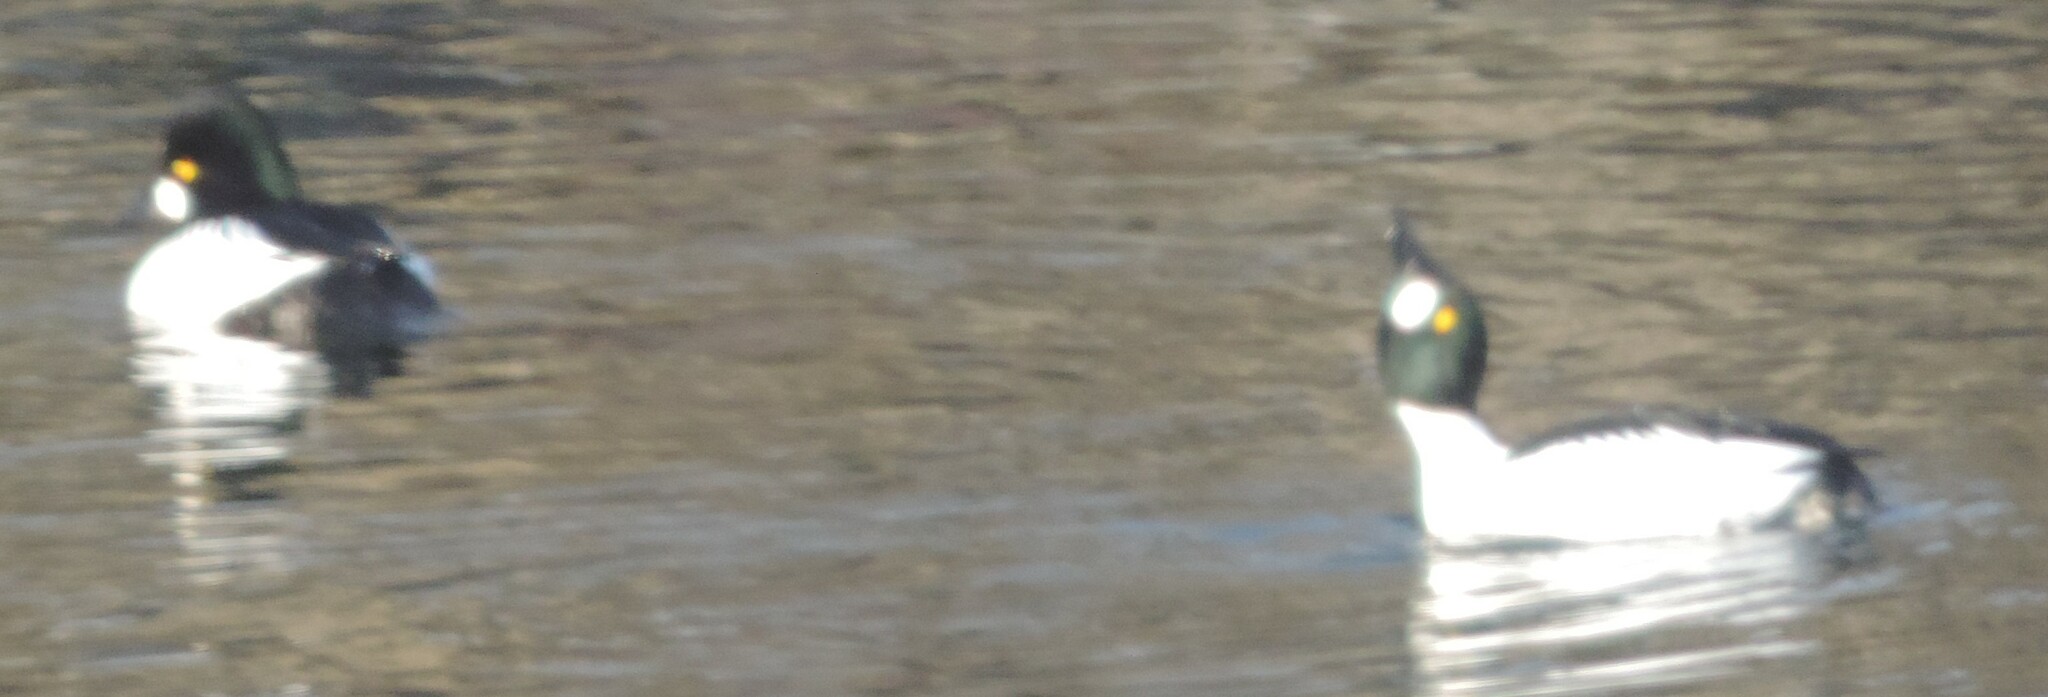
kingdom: Animalia
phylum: Chordata
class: Aves
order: Anseriformes
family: Anatidae
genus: Bucephala
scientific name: Bucephala clangula
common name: Common goldeneye
